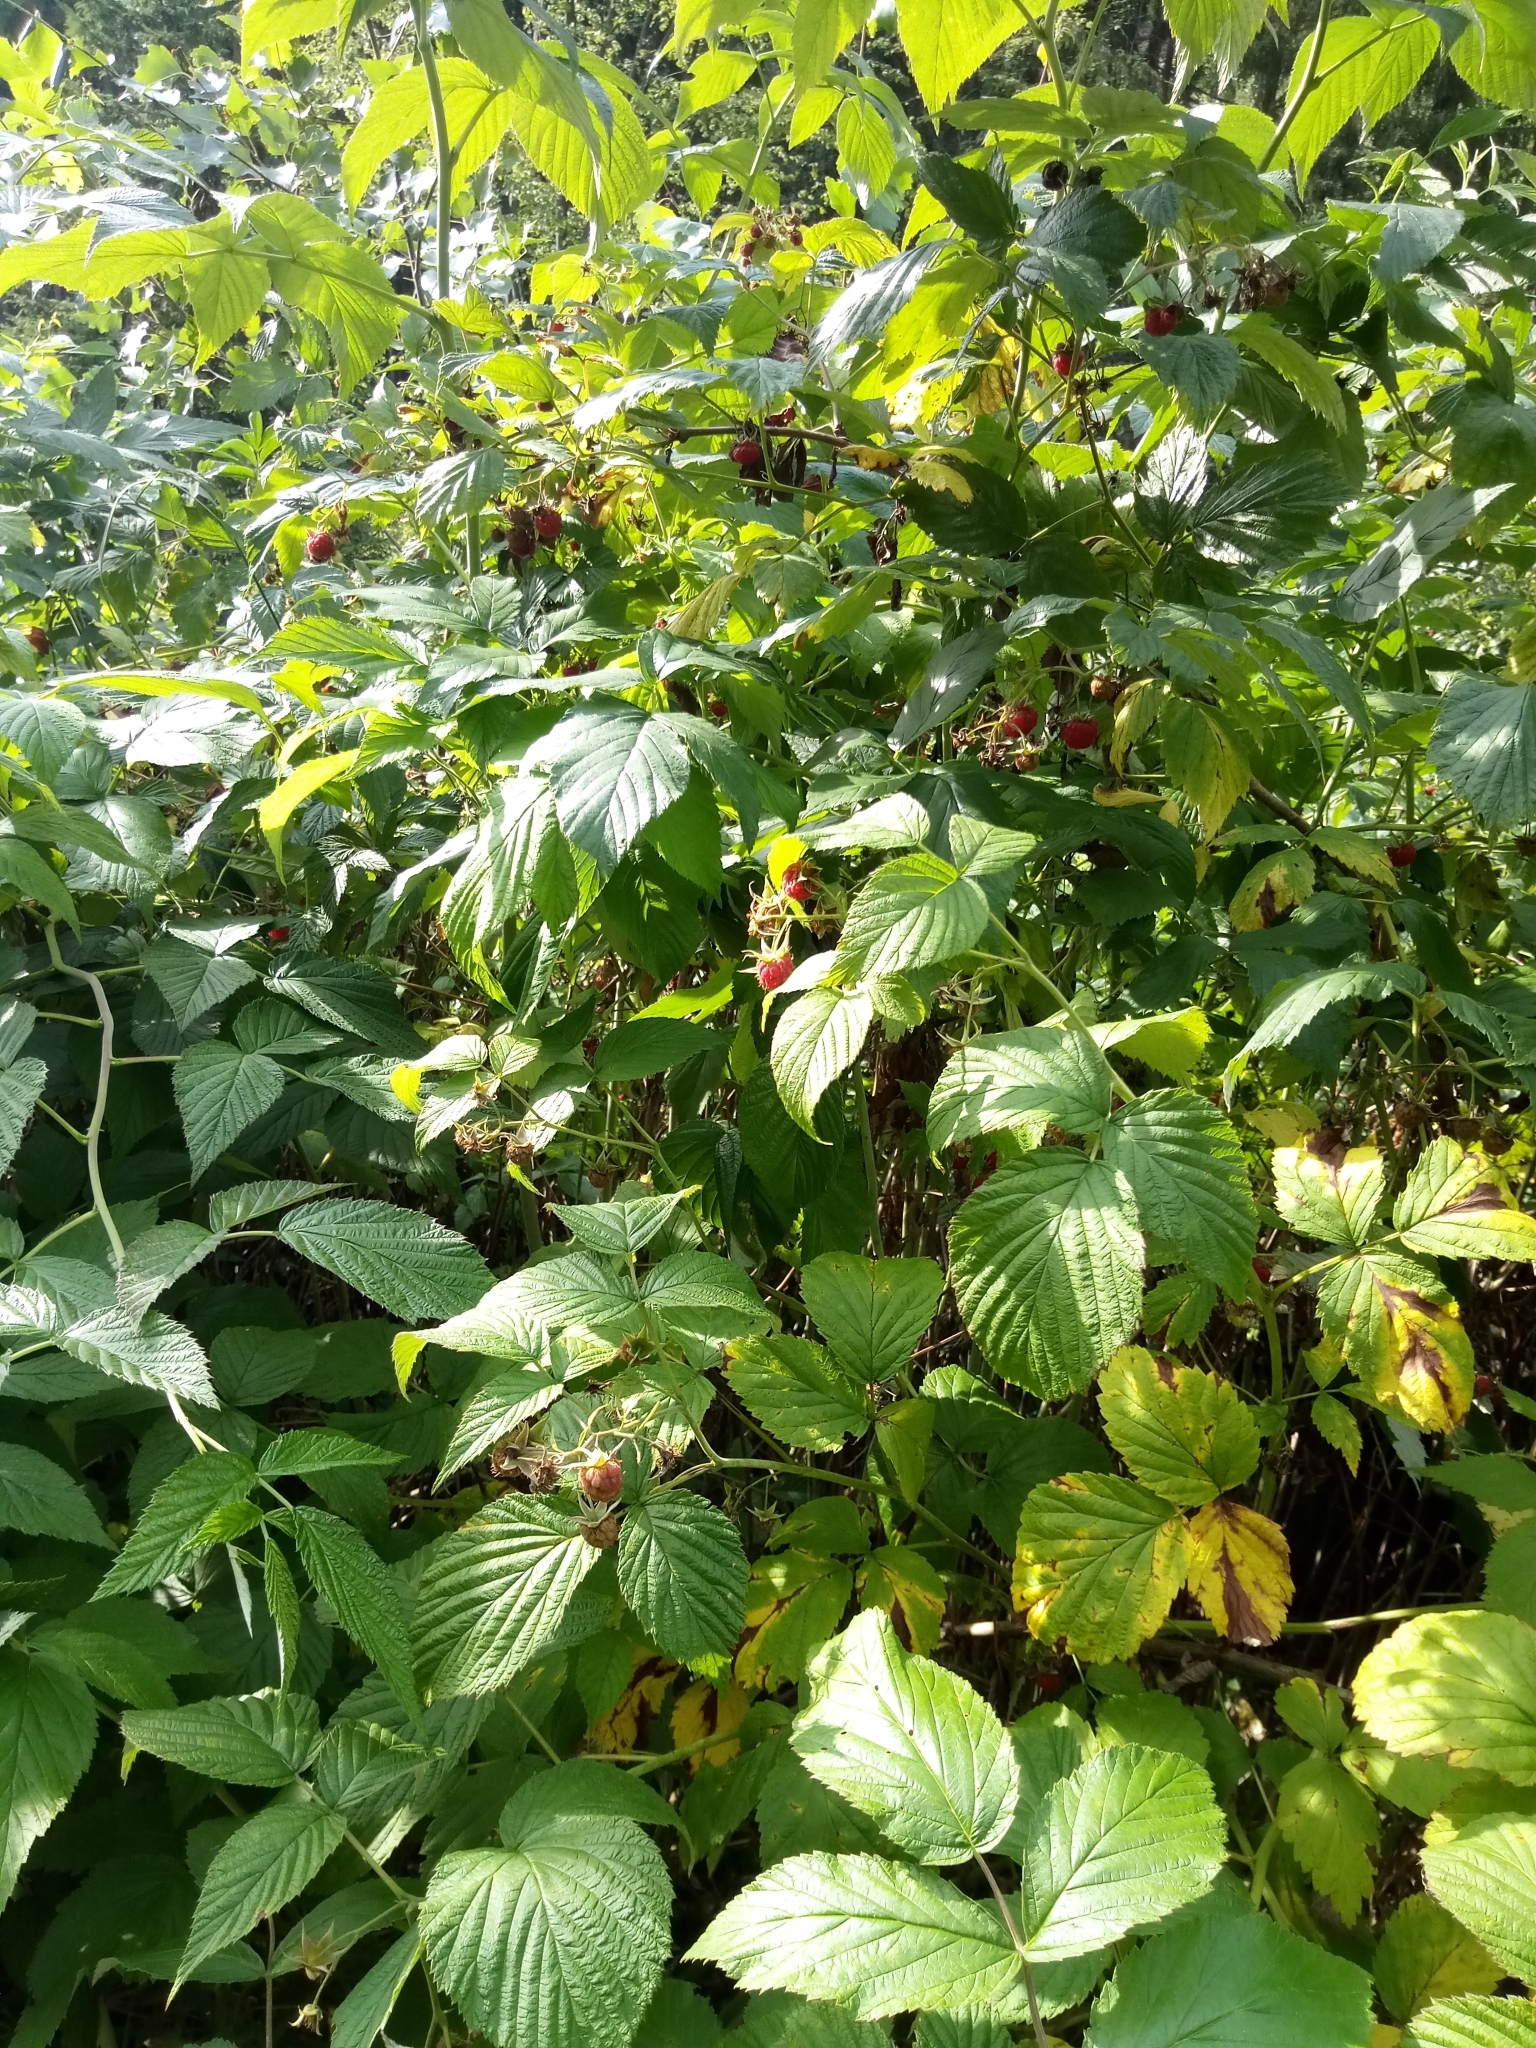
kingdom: Plantae
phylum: Tracheophyta
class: Magnoliopsida
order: Rosales
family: Rosaceae
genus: Rubus
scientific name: Rubus idaeus
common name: Raspberry
